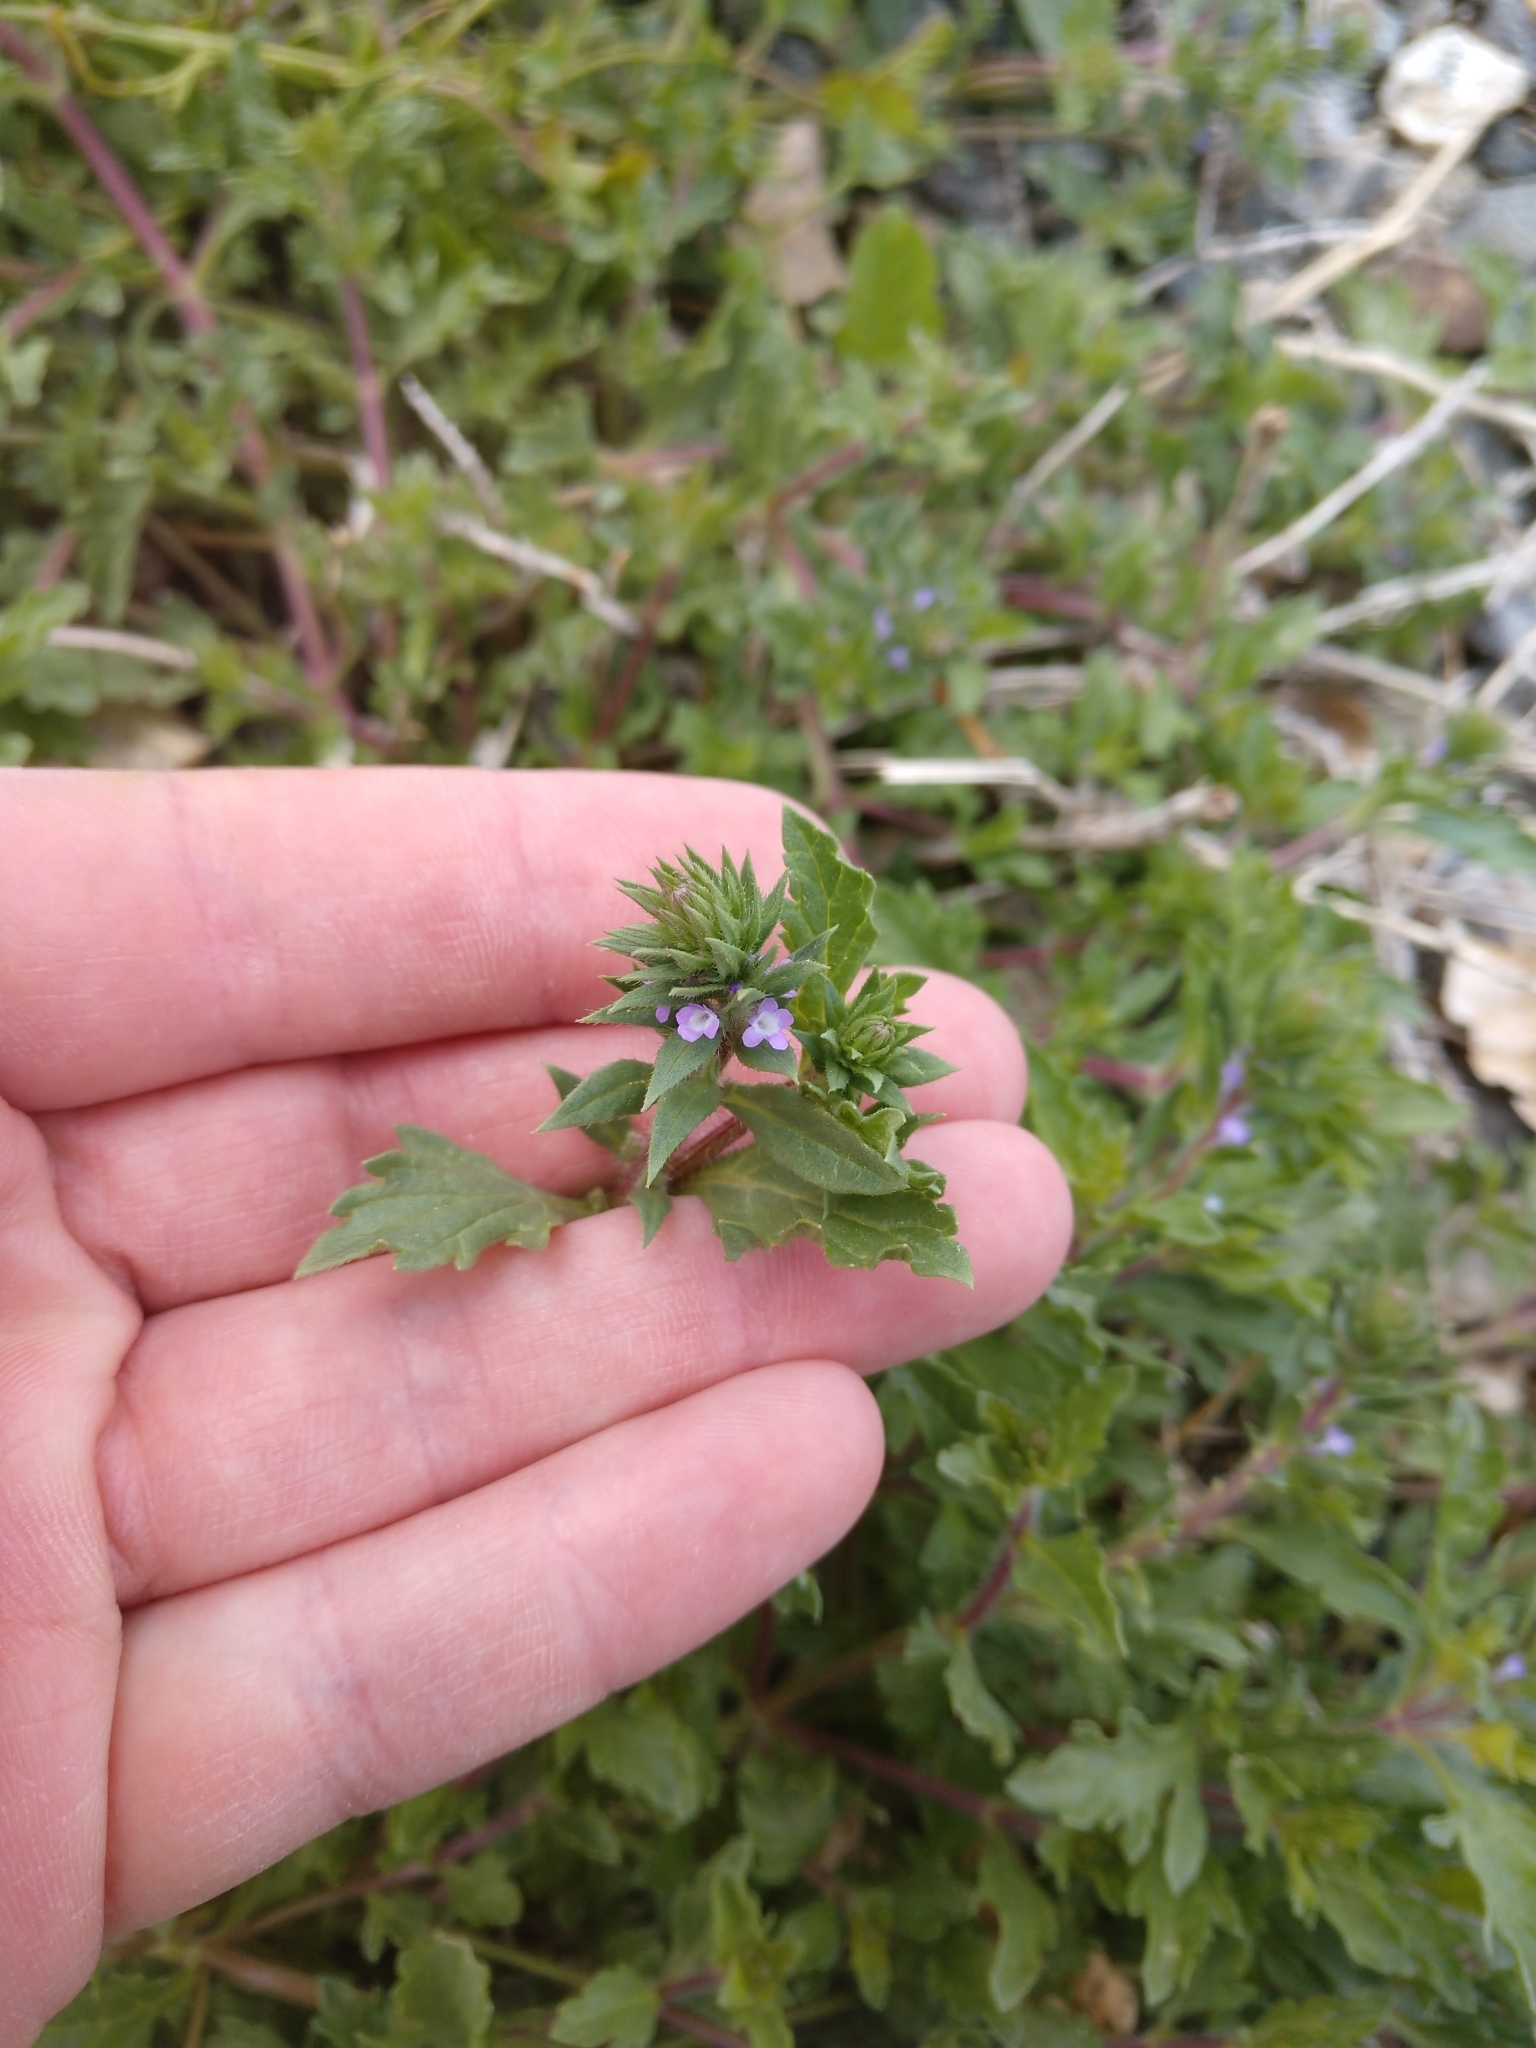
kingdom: Plantae
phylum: Tracheophyta
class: Magnoliopsida
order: Lamiales
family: Verbenaceae
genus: Verbena
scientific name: Verbena bracteata
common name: Bracted vervain
